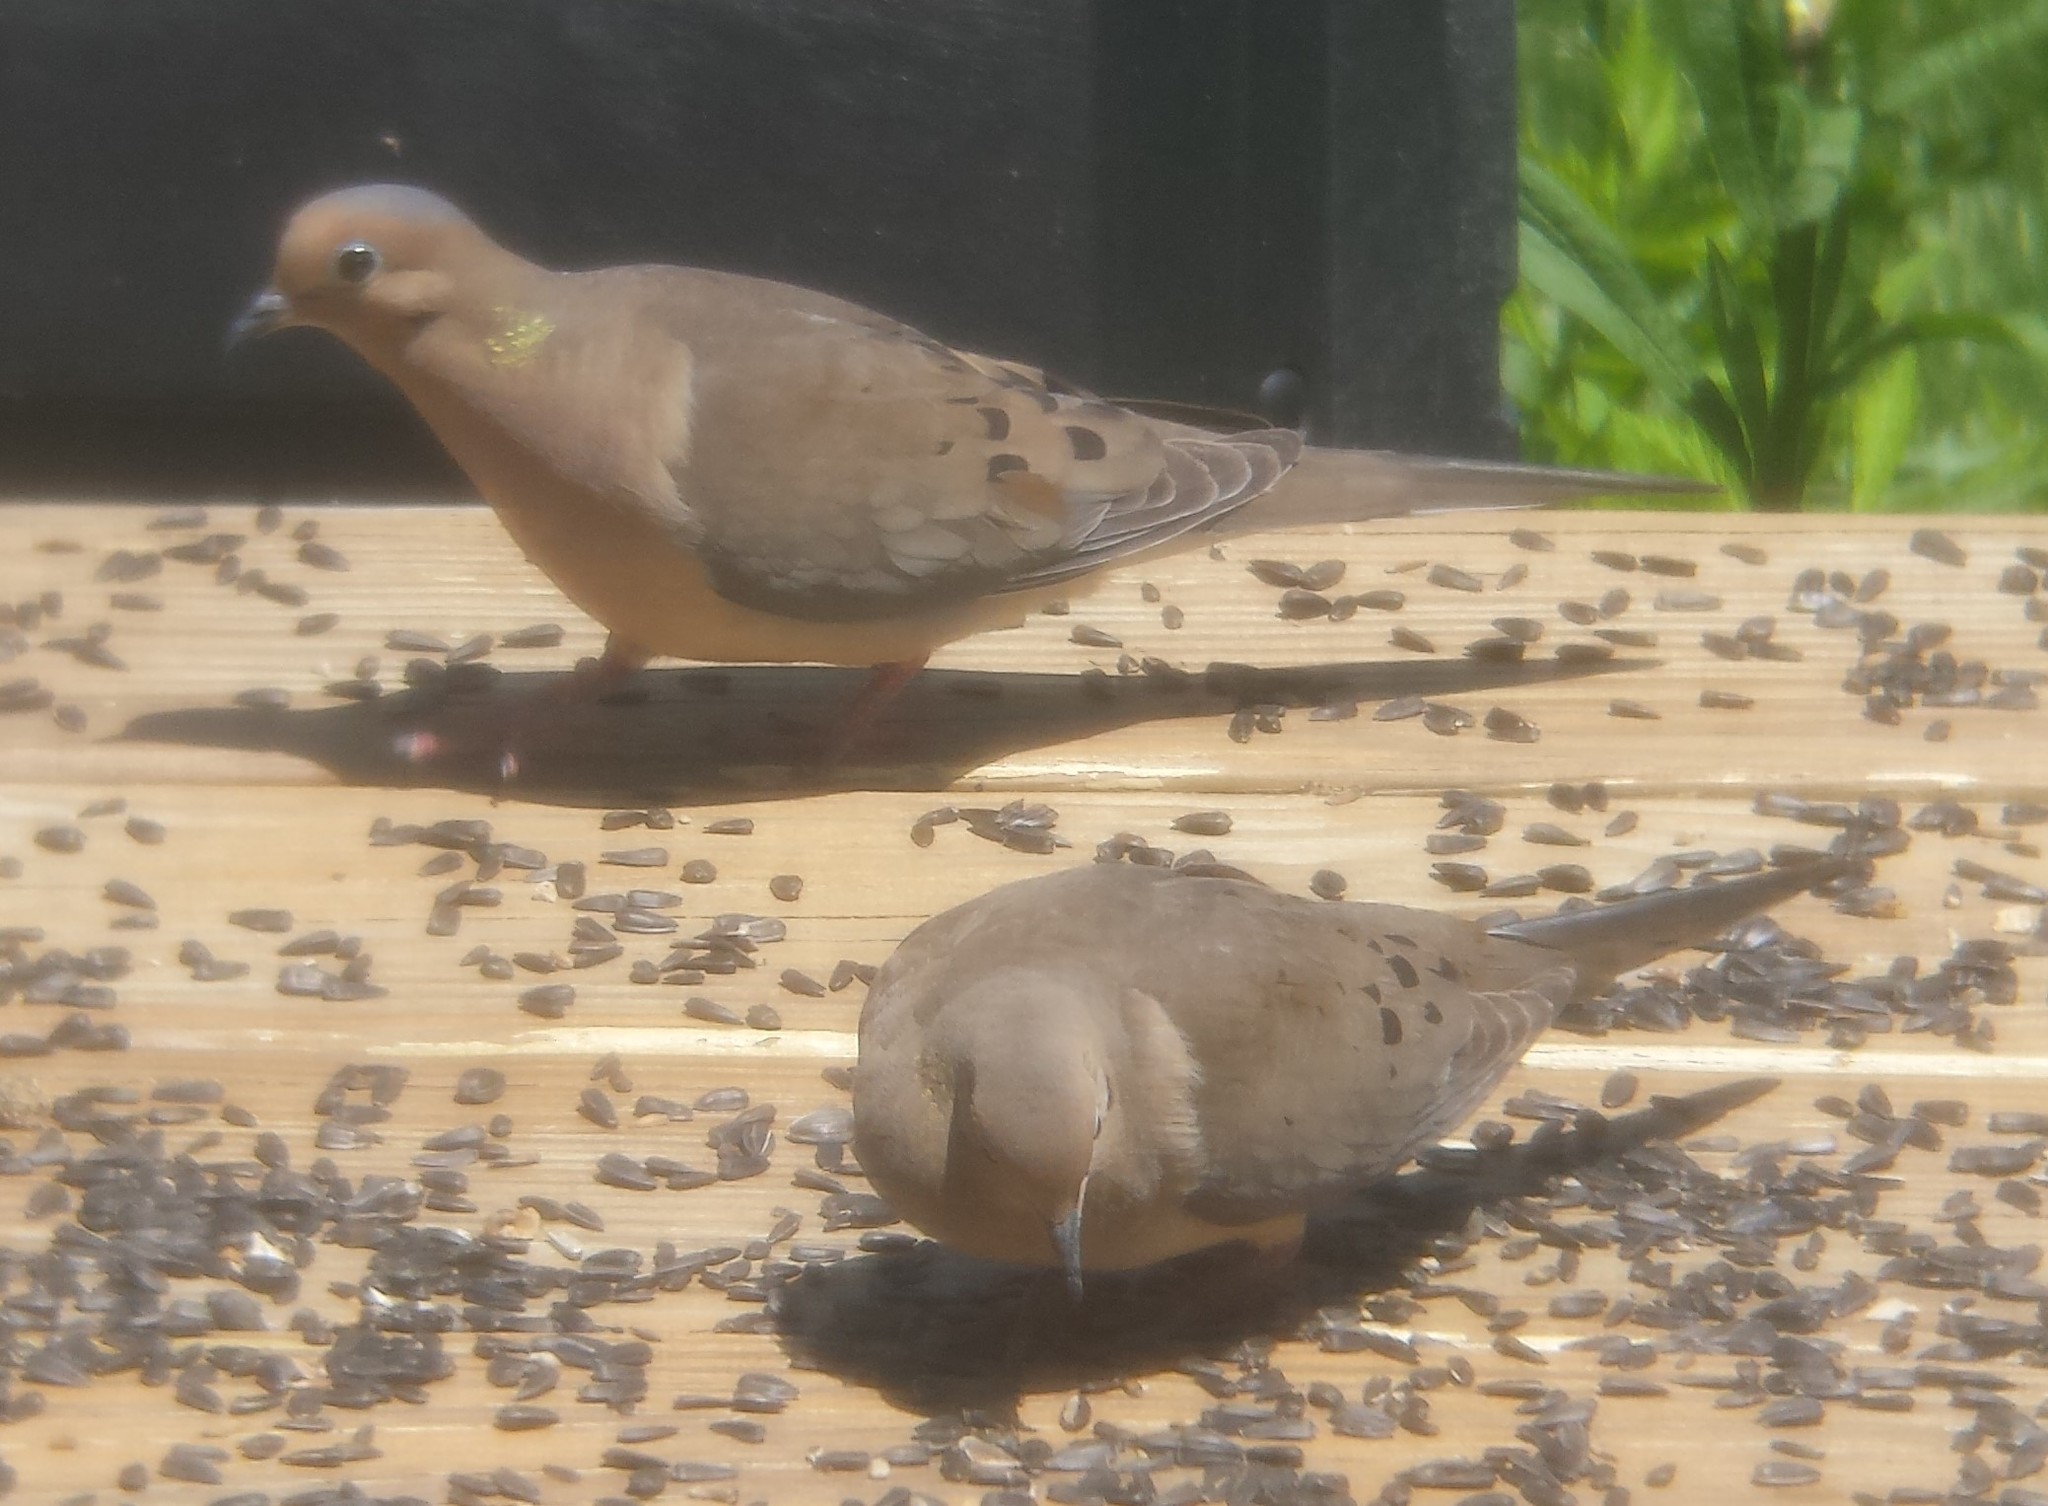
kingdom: Animalia
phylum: Chordata
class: Aves
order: Columbiformes
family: Columbidae
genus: Zenaida
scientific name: Zenaida macroura
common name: Mourning dove
